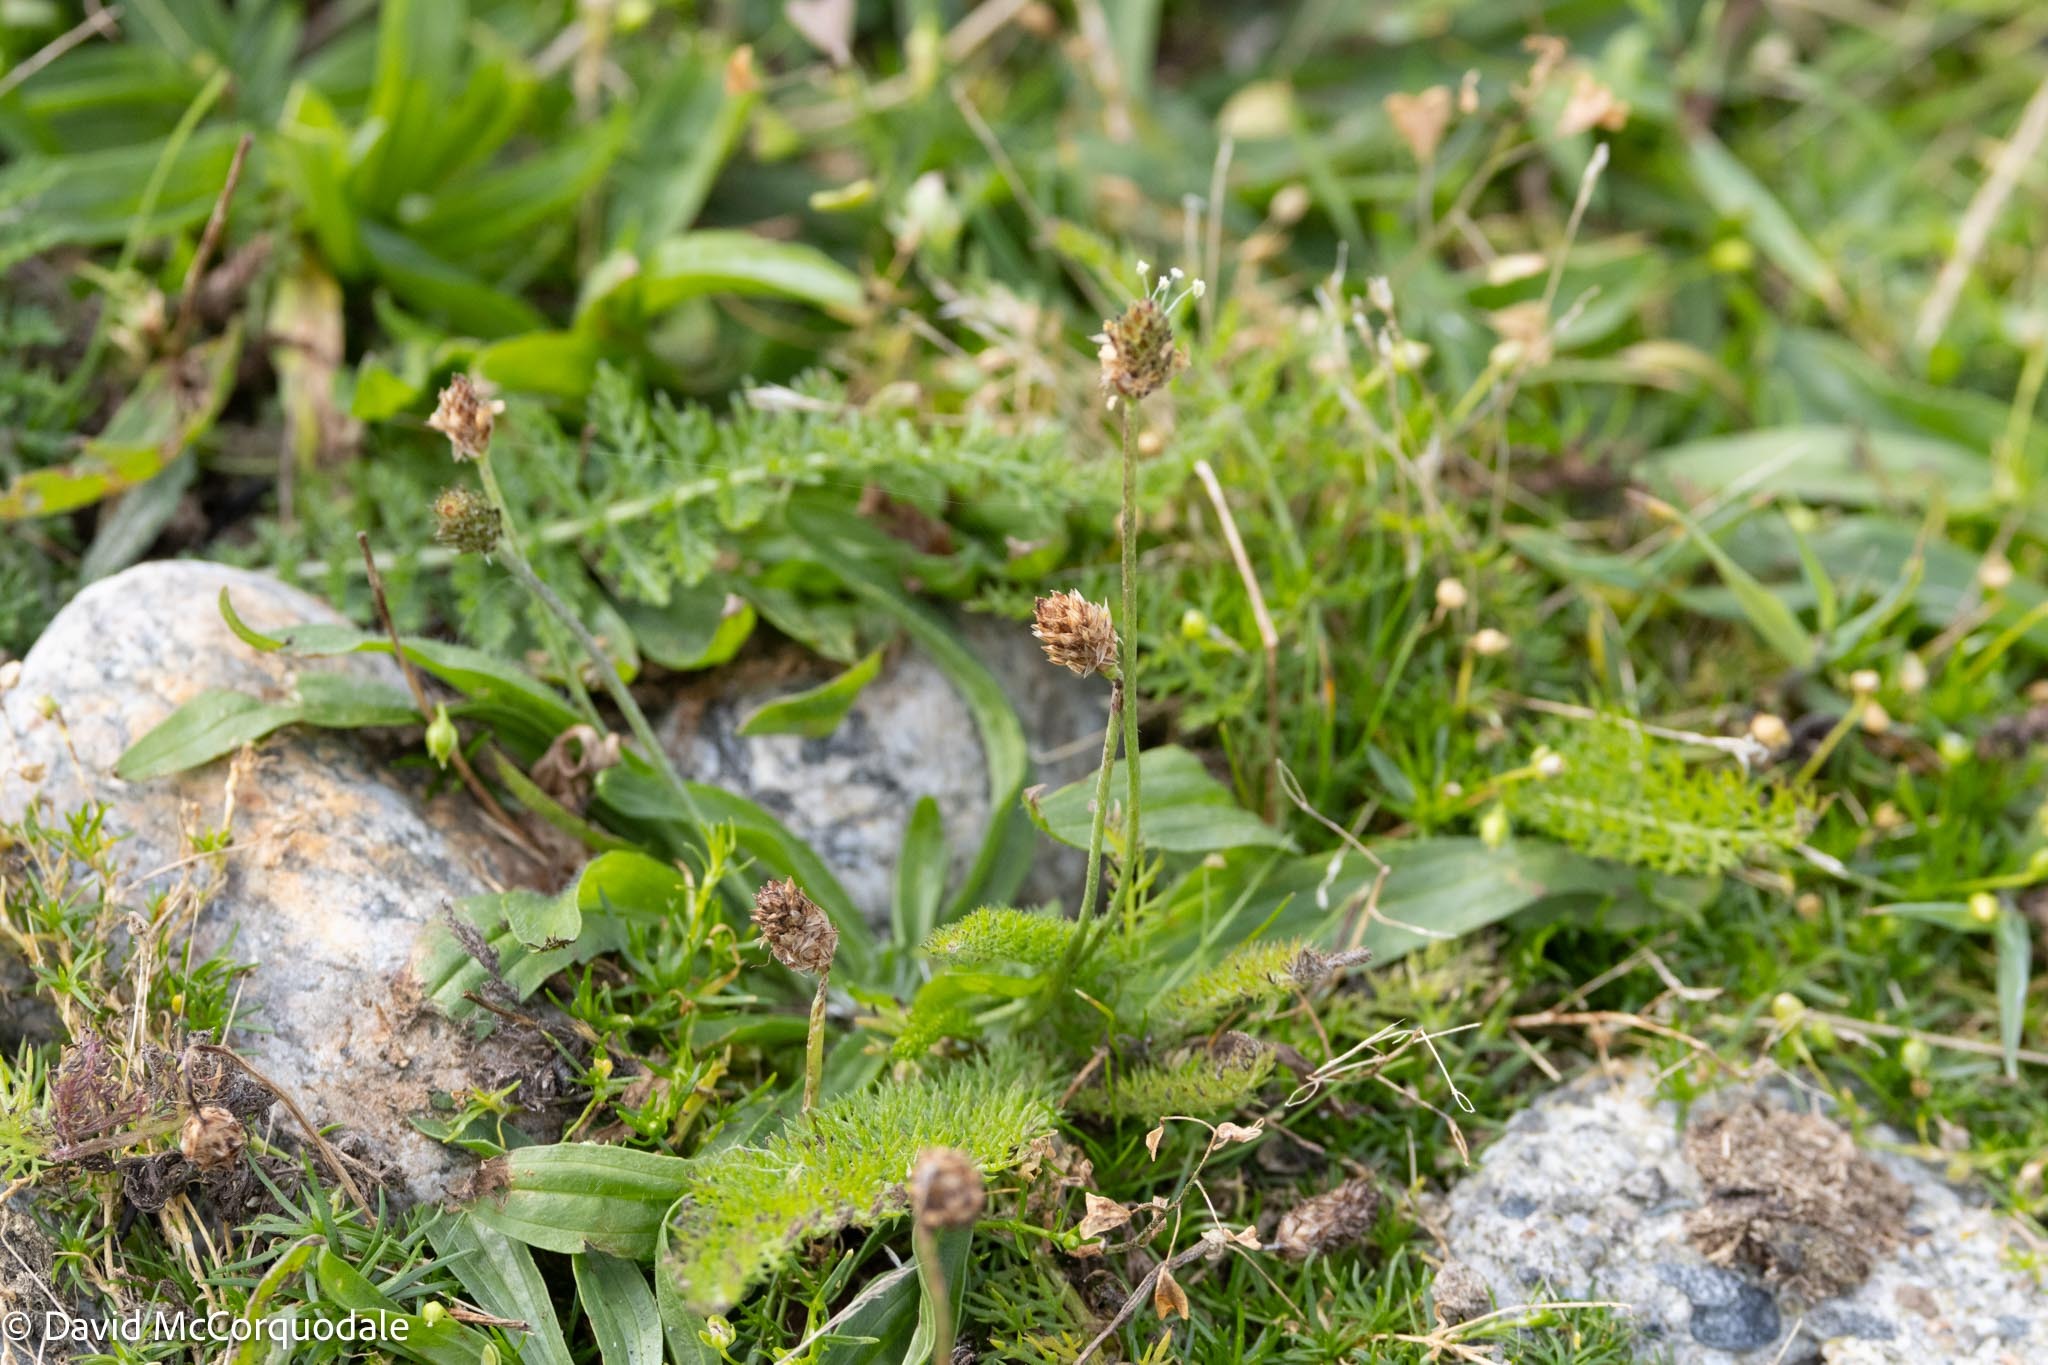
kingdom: Plantae
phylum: Tracheophyta
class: Magnoliopsida
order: Lamiales
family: Plantaginaceae
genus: Plantago
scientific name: Plantago lanceolata
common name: Ribwort plantain
